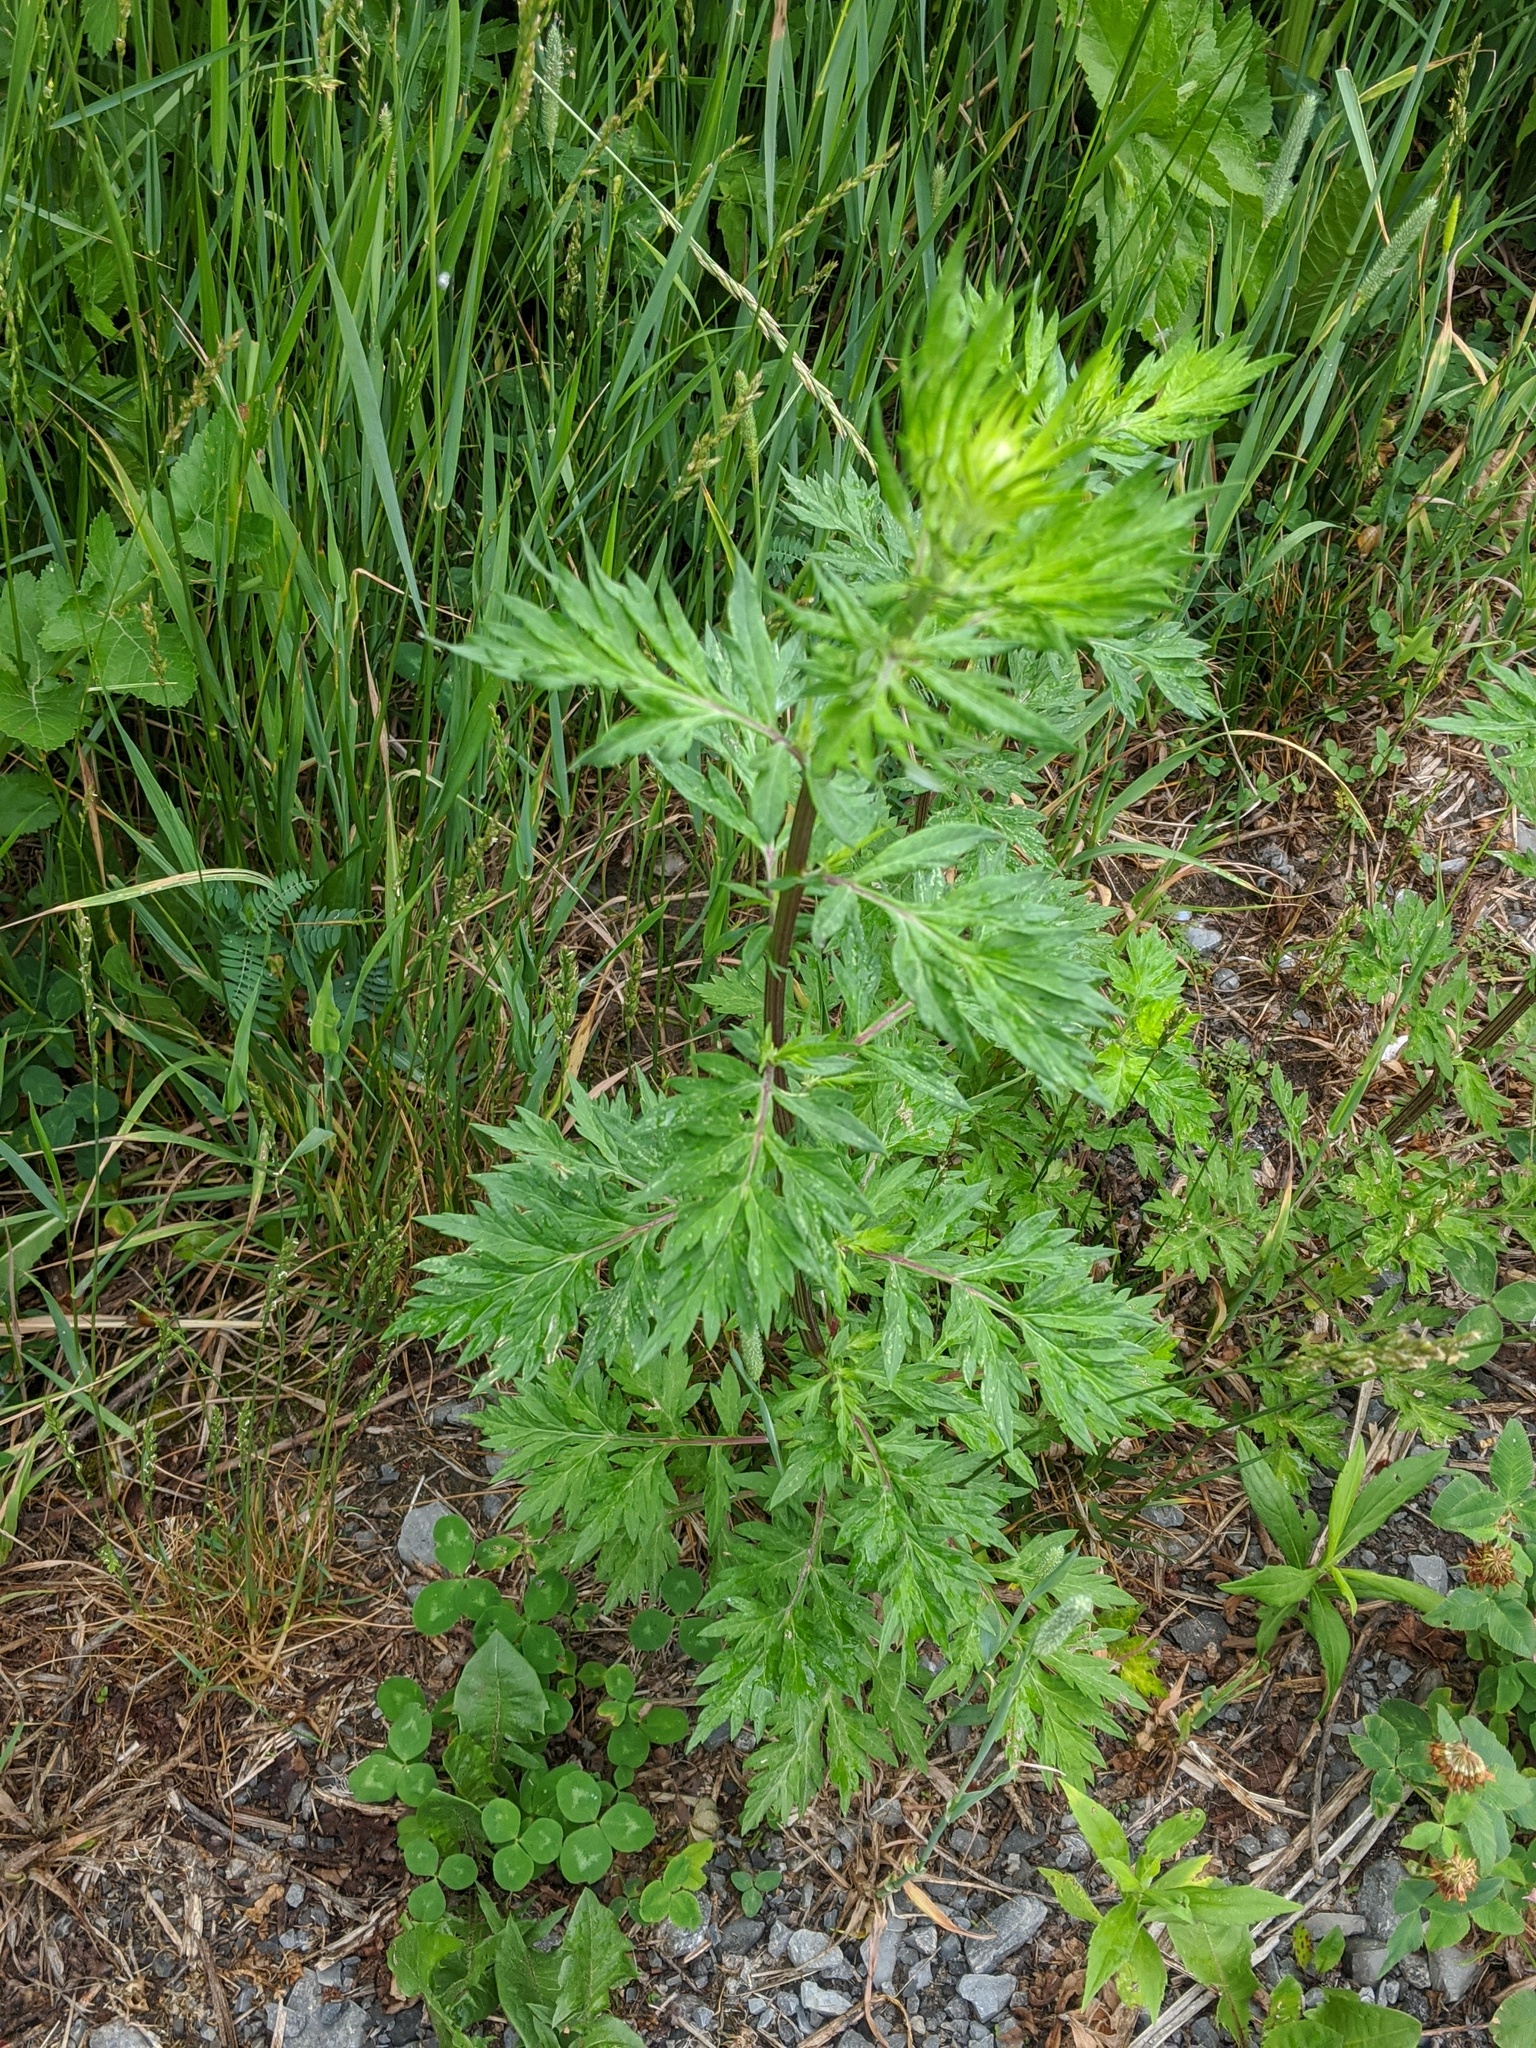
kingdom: Plantae
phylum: Tracheophyta
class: Magnoliopsida
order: Asterales
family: Asteraceae
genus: Artemisia
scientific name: Artemisia vulgaris
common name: Mugwort
